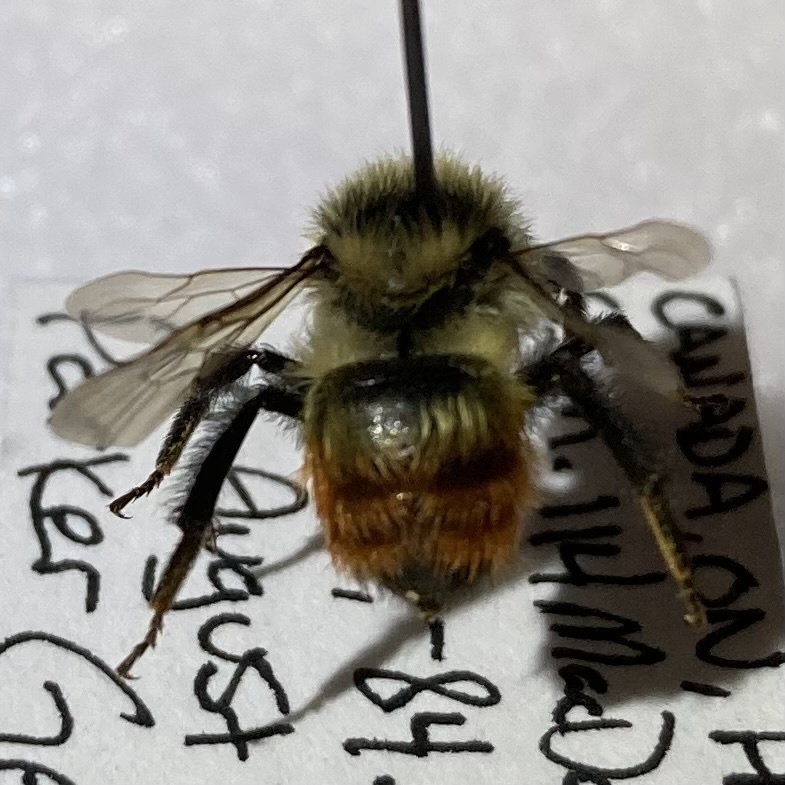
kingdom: Animalia
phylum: Arthropoda
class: Insecta
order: Hymenoptera
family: Apidae
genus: Bombus
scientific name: Bombus rufocinctus
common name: Red-belted bumble bee
